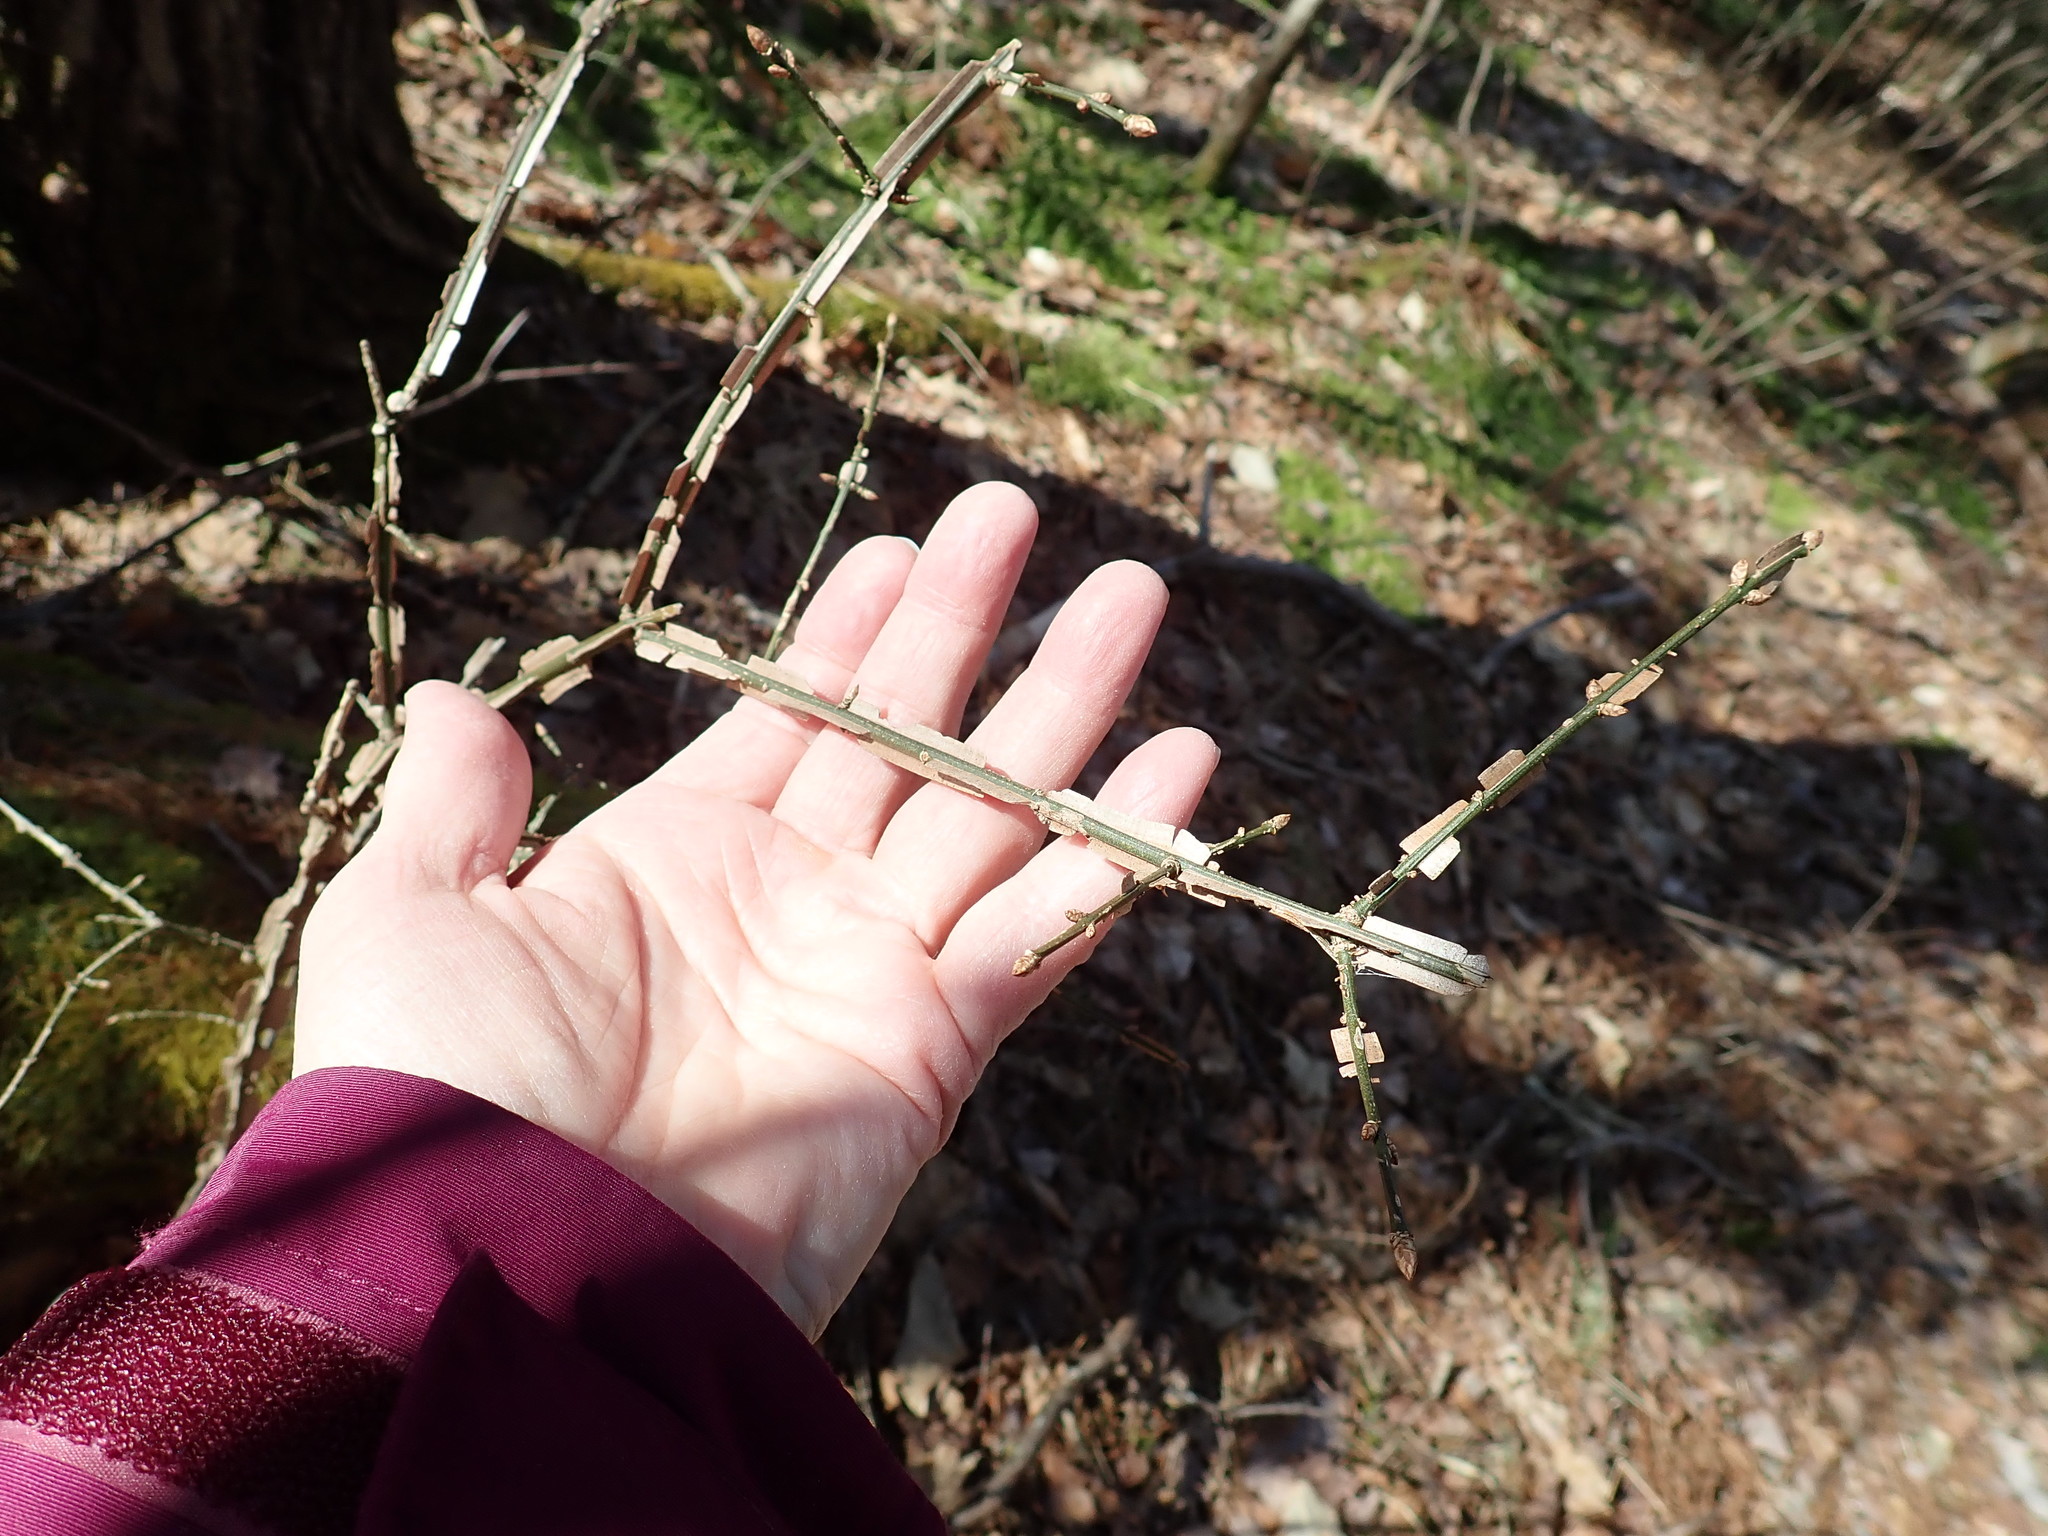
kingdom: Plantae
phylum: Tracheophyta
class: Magnoliopsida
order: Celastrales
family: Celastraceae
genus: Euonymus
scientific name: Euonymus alatus
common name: Winged euonymus
